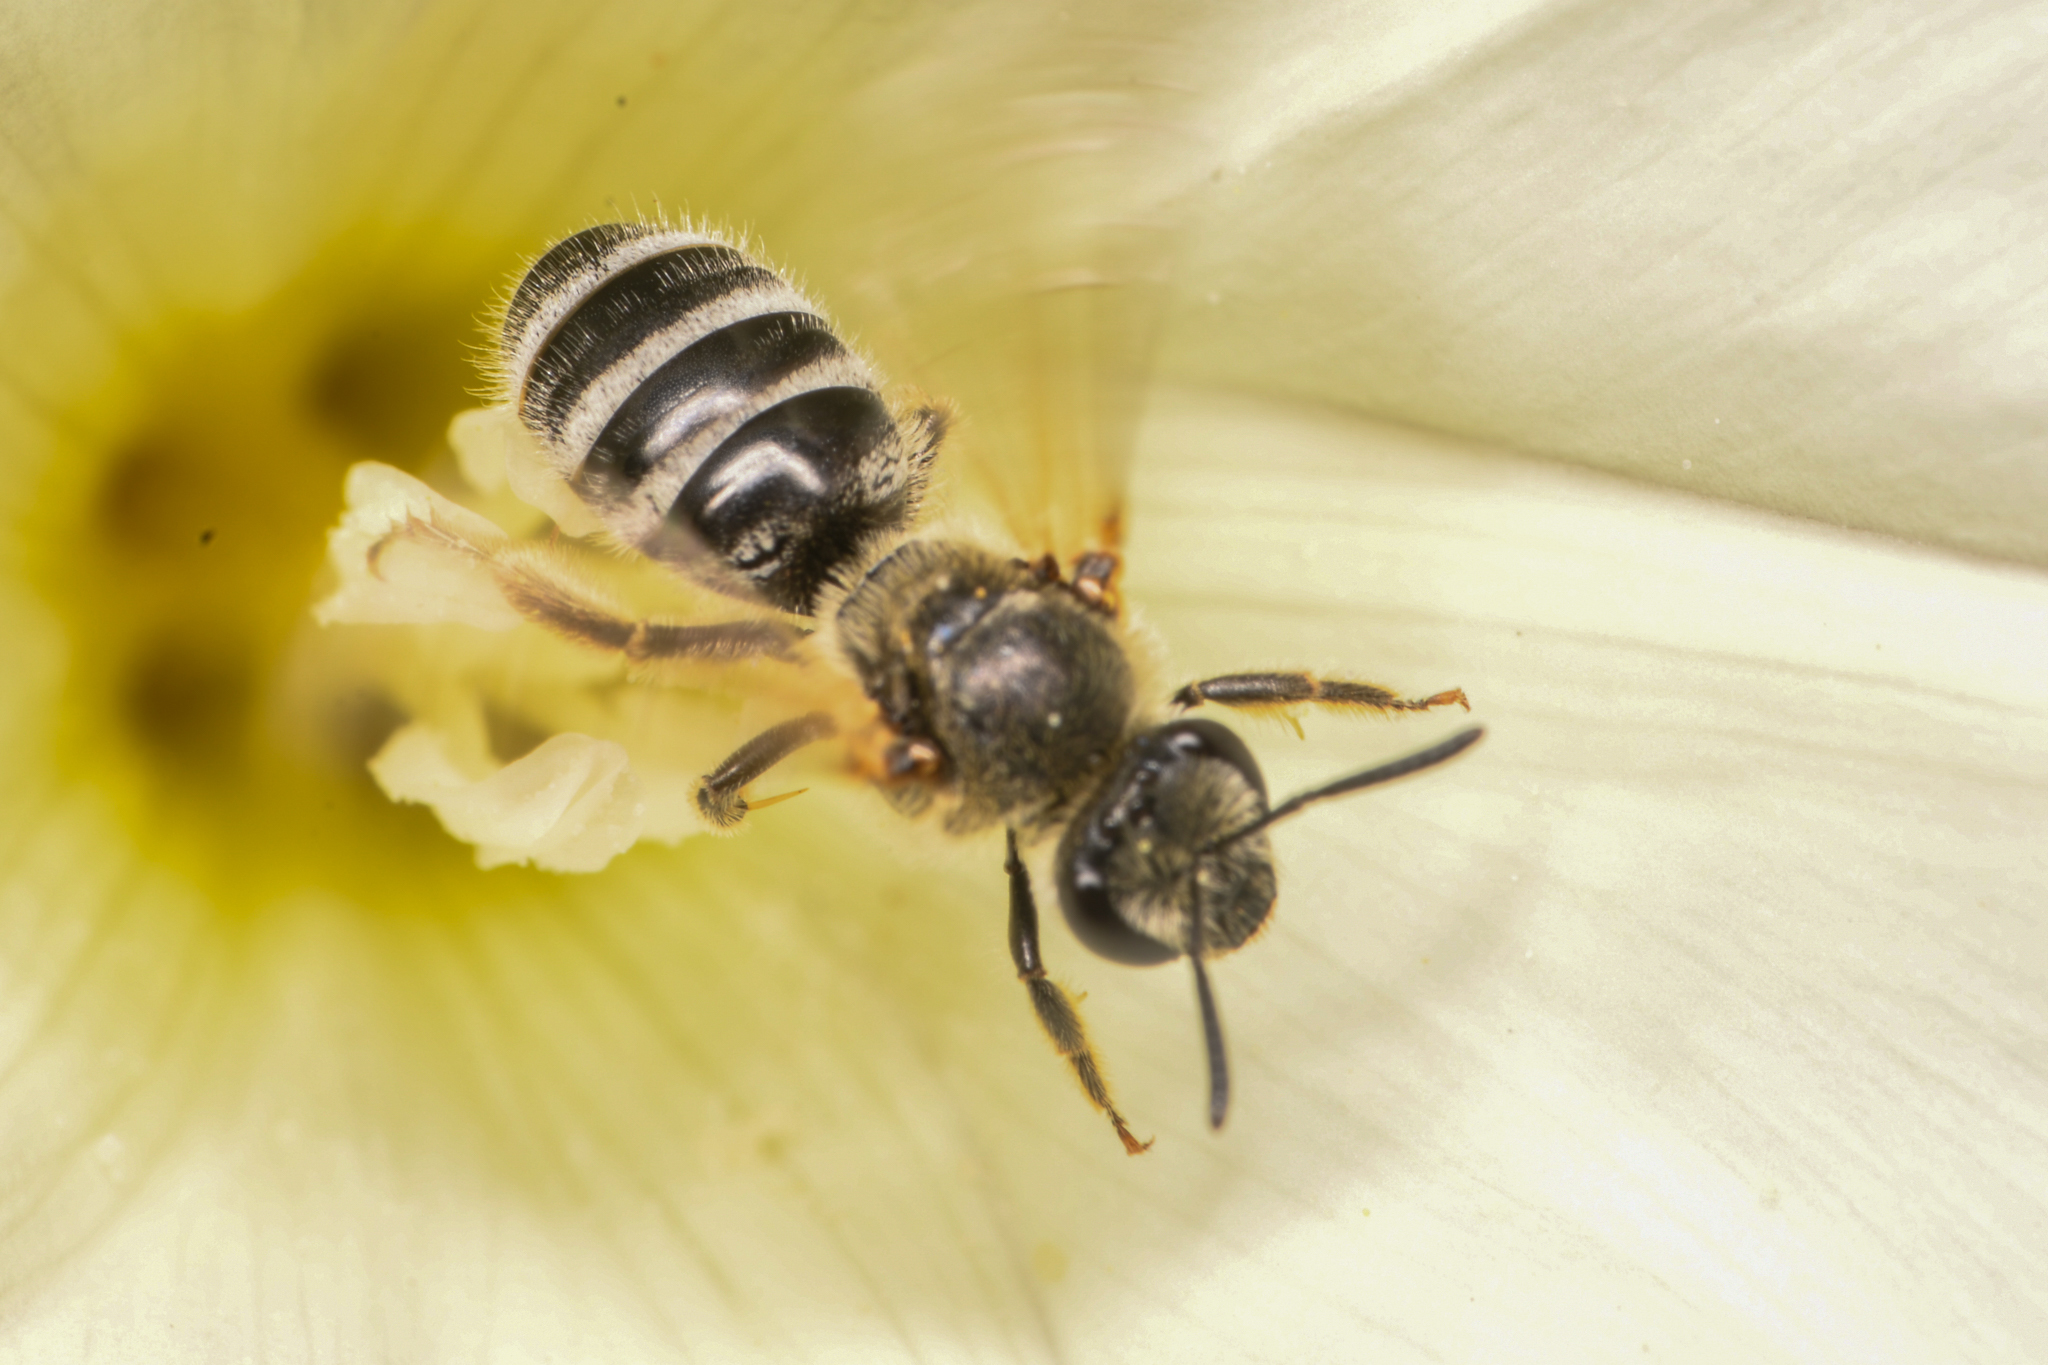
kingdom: Animalia
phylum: Arthropoda
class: Insecta
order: Hymenoptera
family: Halictidae
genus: Lasioglossum
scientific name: Lasioglossum sisymbrii
